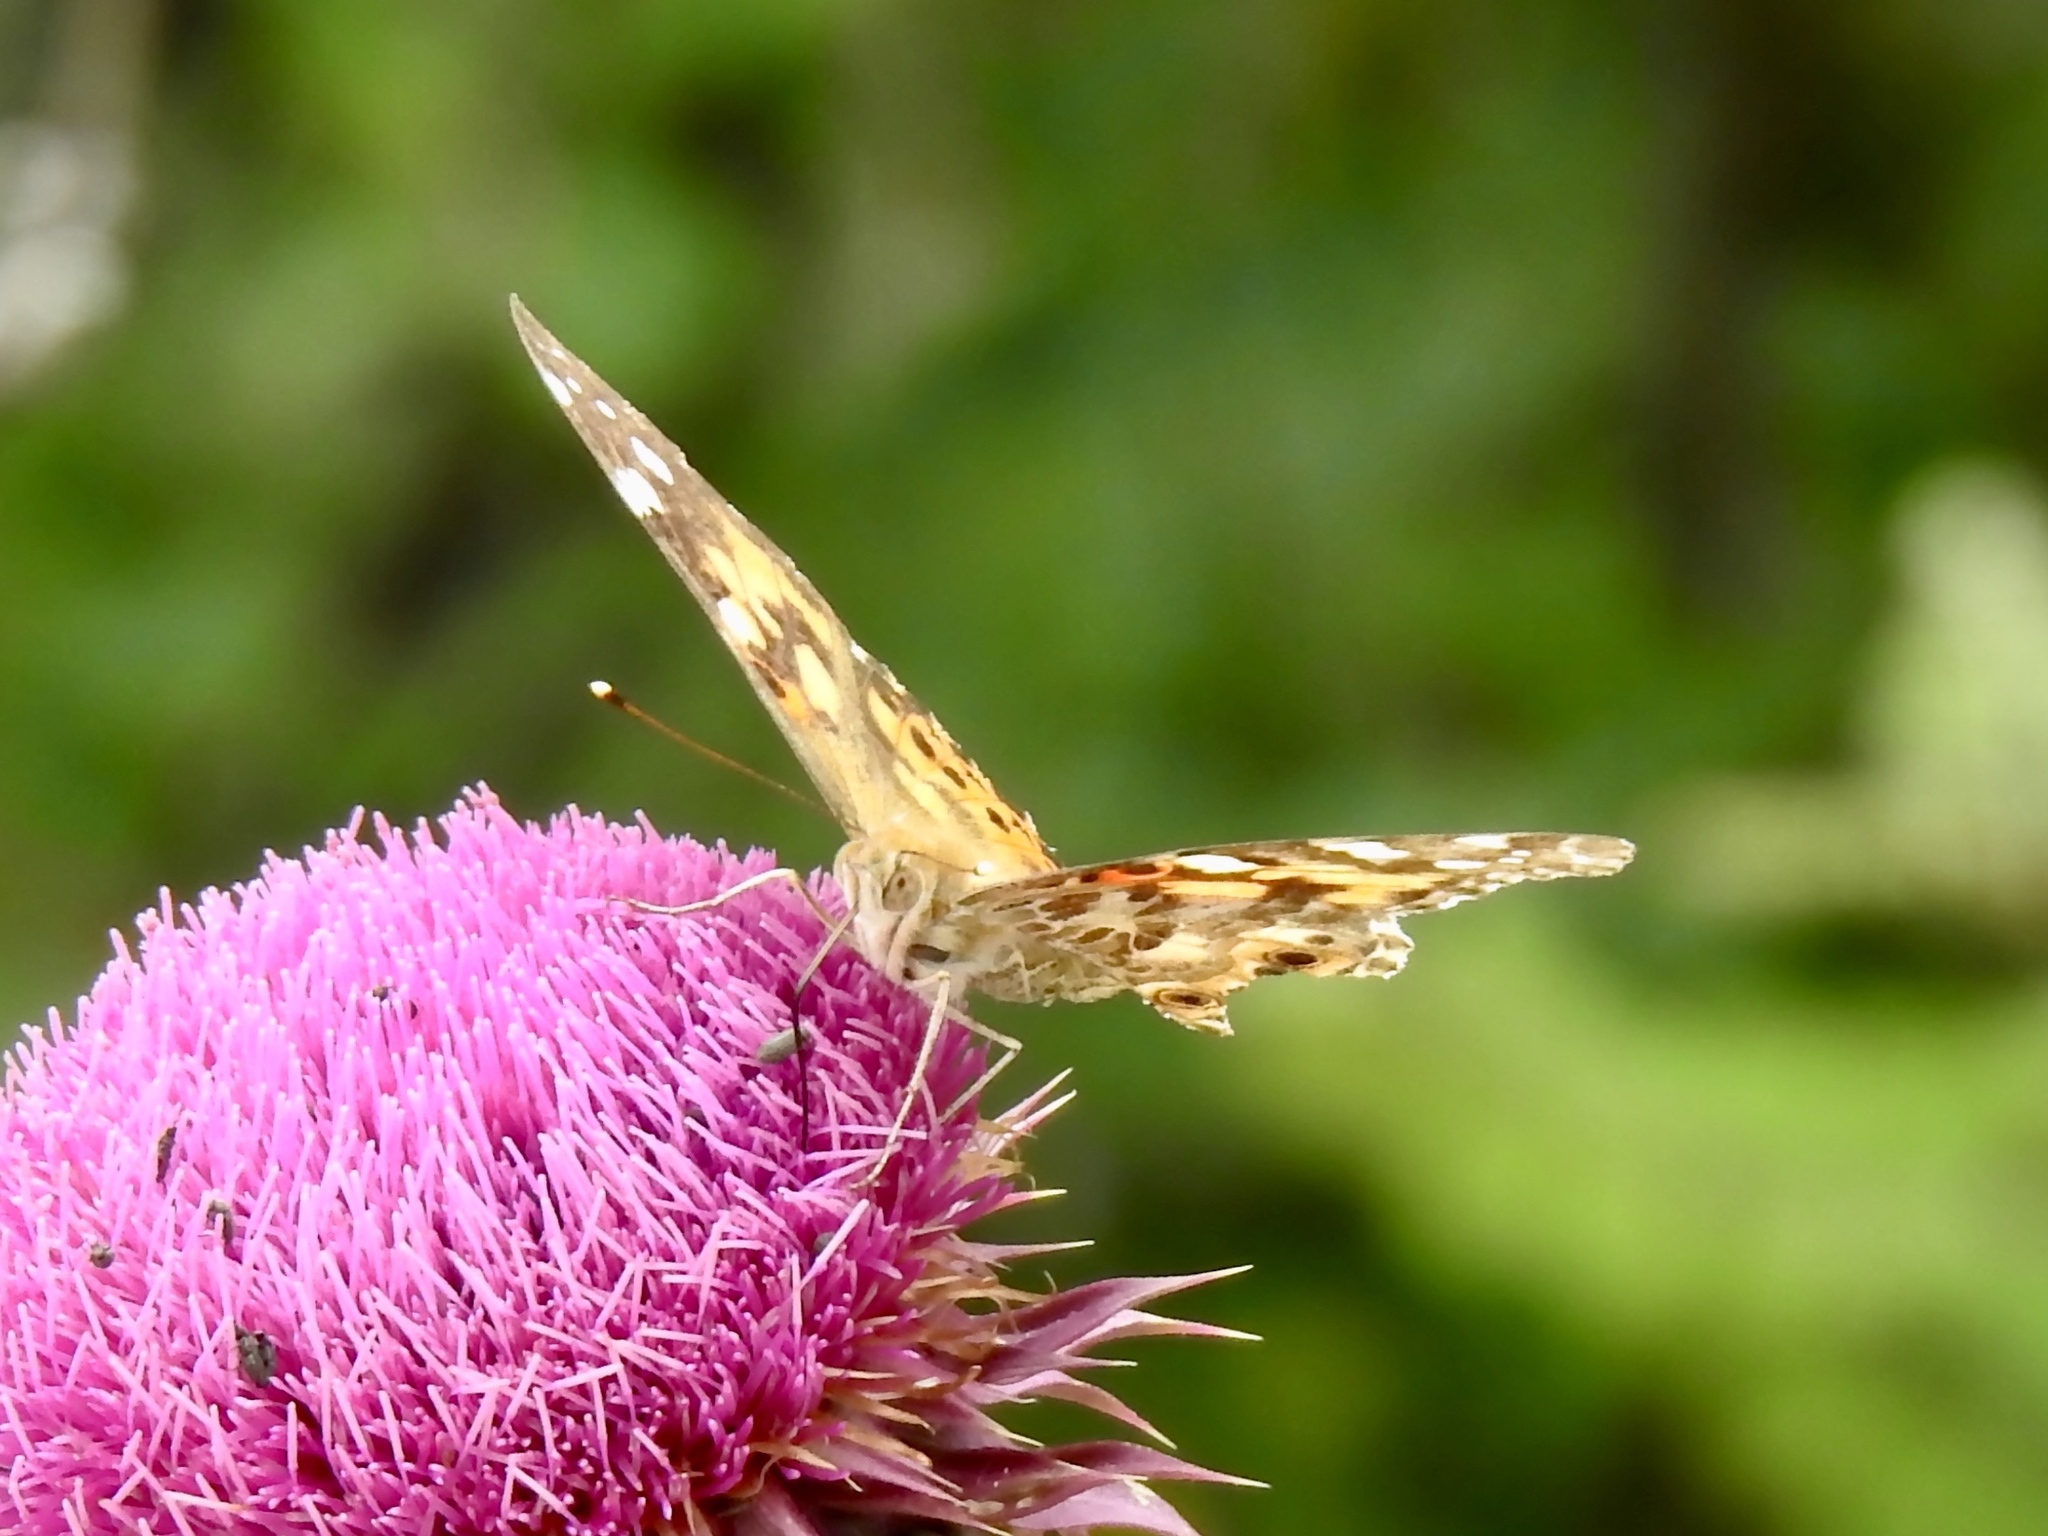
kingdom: Animalia
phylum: Arthropoda
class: Insecta
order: Lepidoptera
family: Nymphalidae
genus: Vanessa
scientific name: Vanessa cardui
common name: Painted lady
